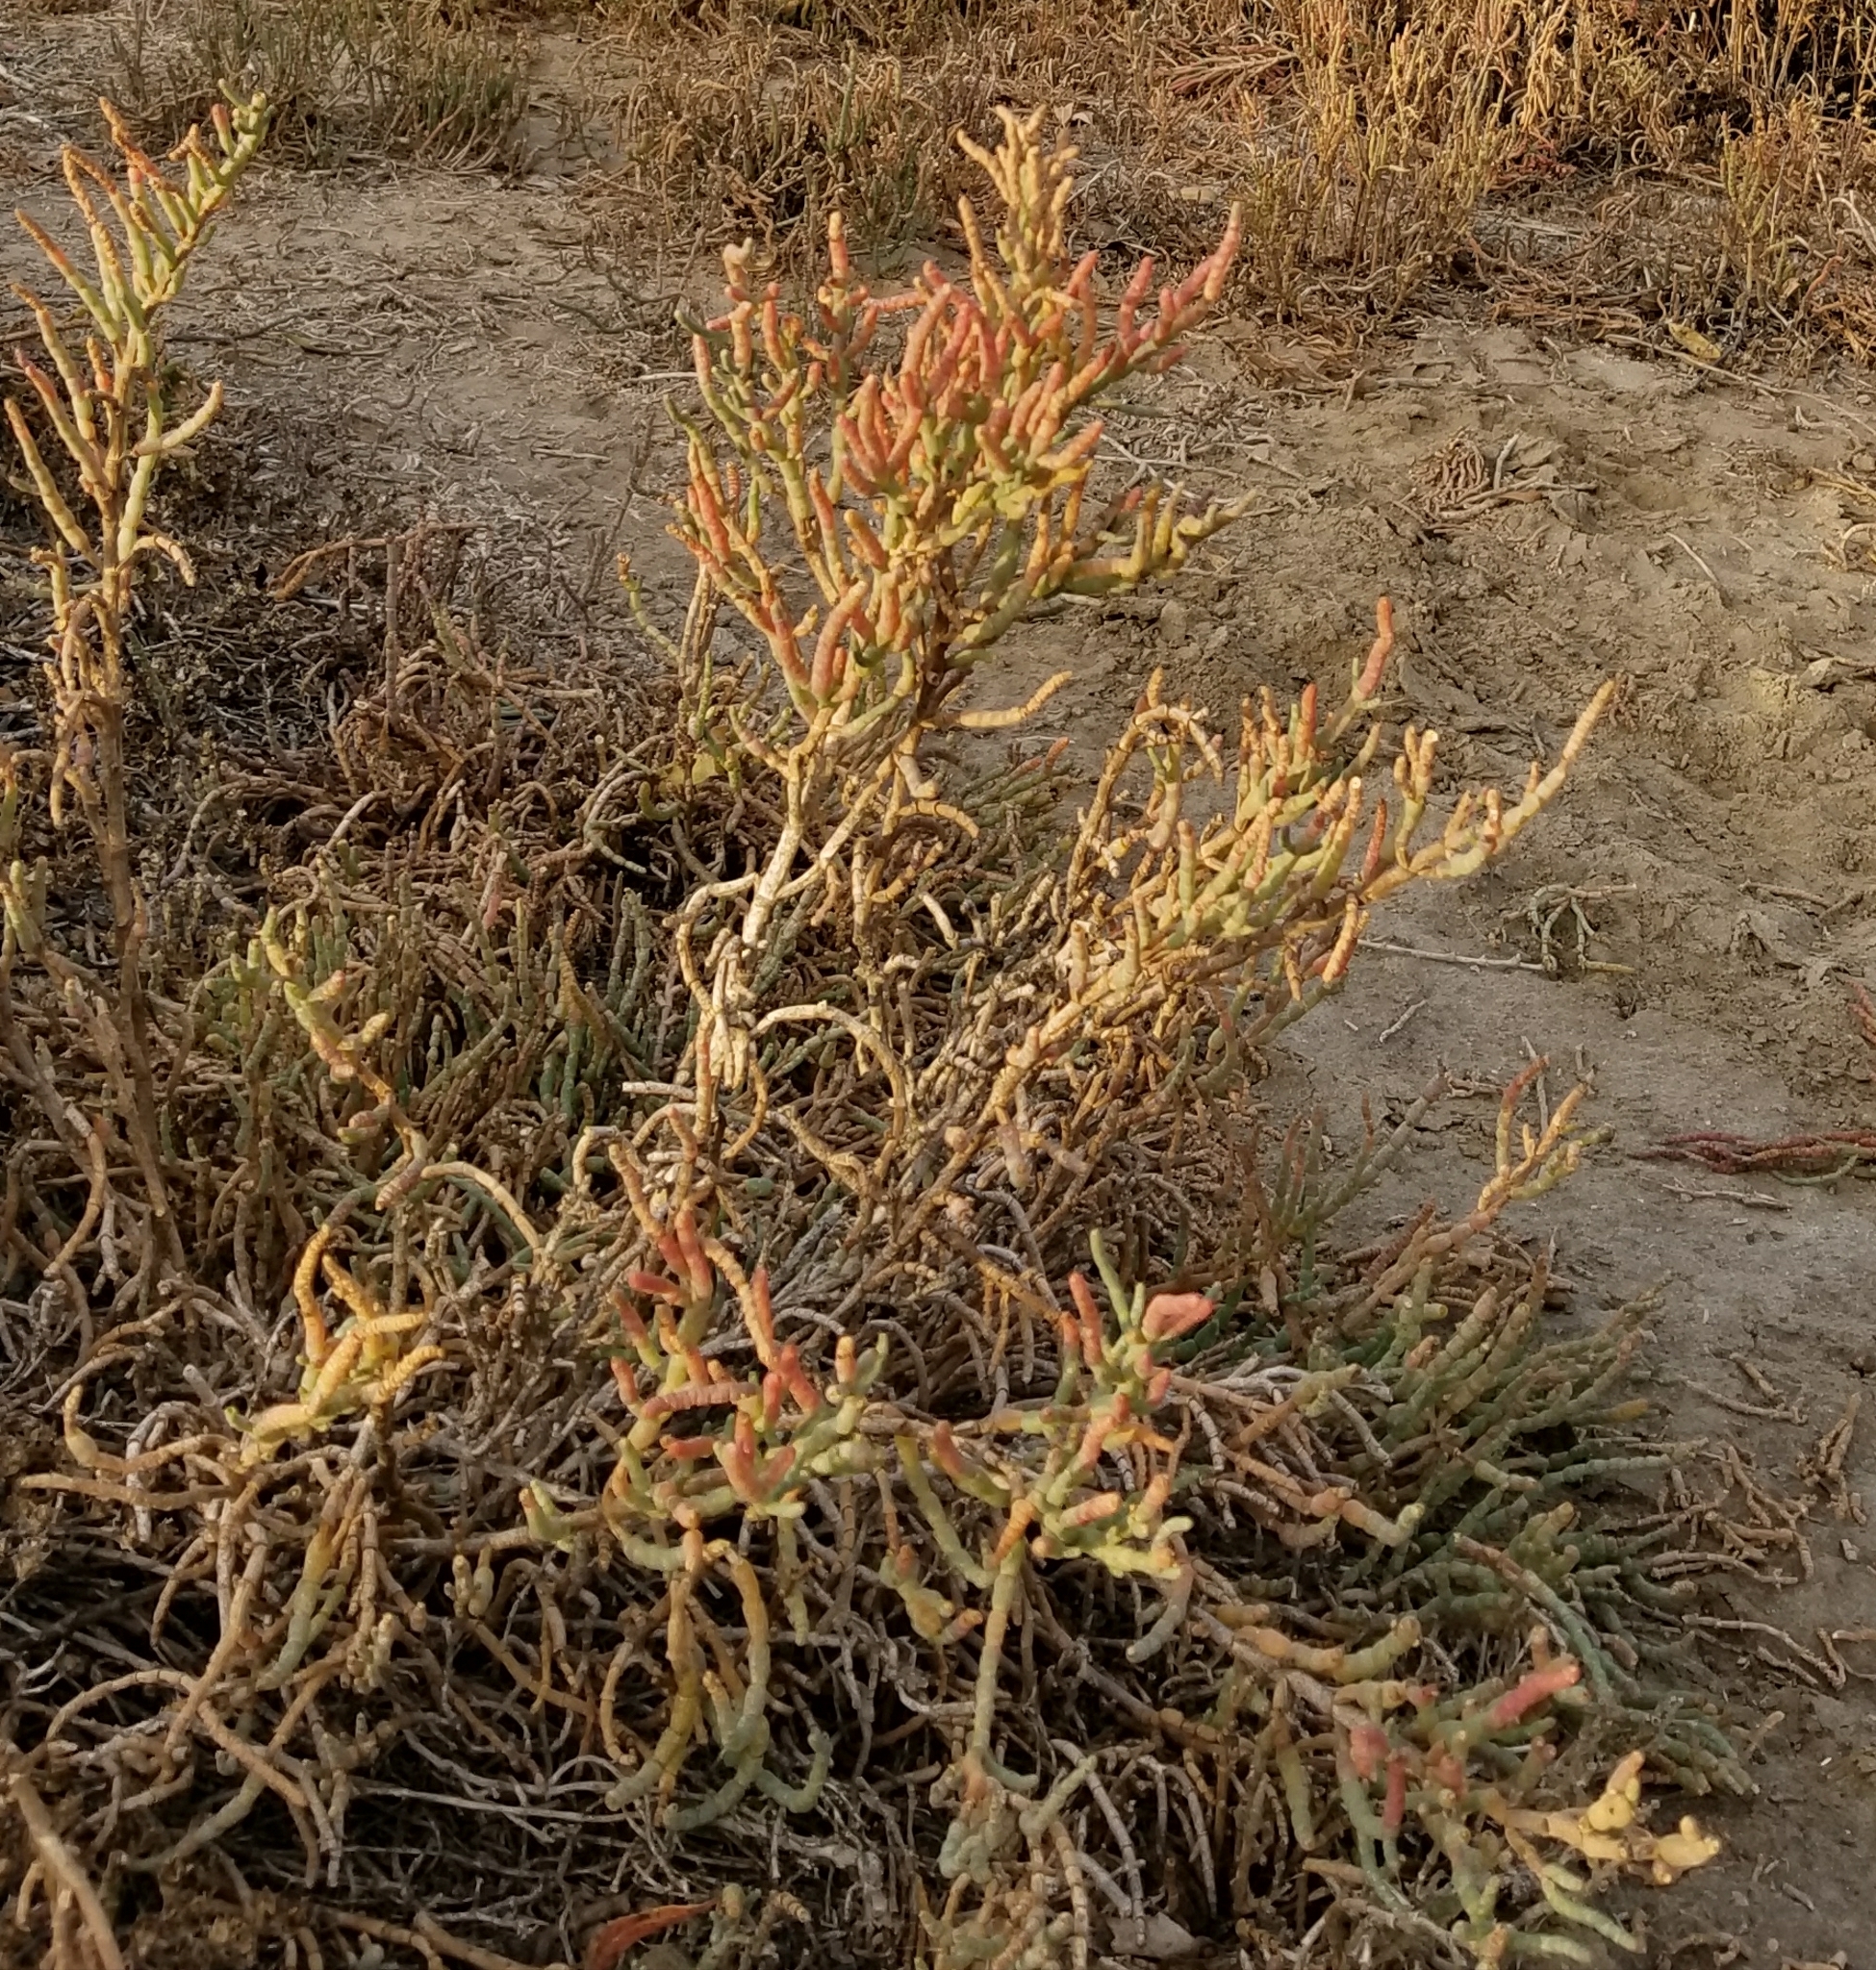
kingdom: Plantae
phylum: Tracheophyta
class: Magnoliopsida
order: Caryophyllales
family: Amaranthaceae
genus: Salicornia
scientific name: Salicornia pacifica
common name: Pacific glasswort
